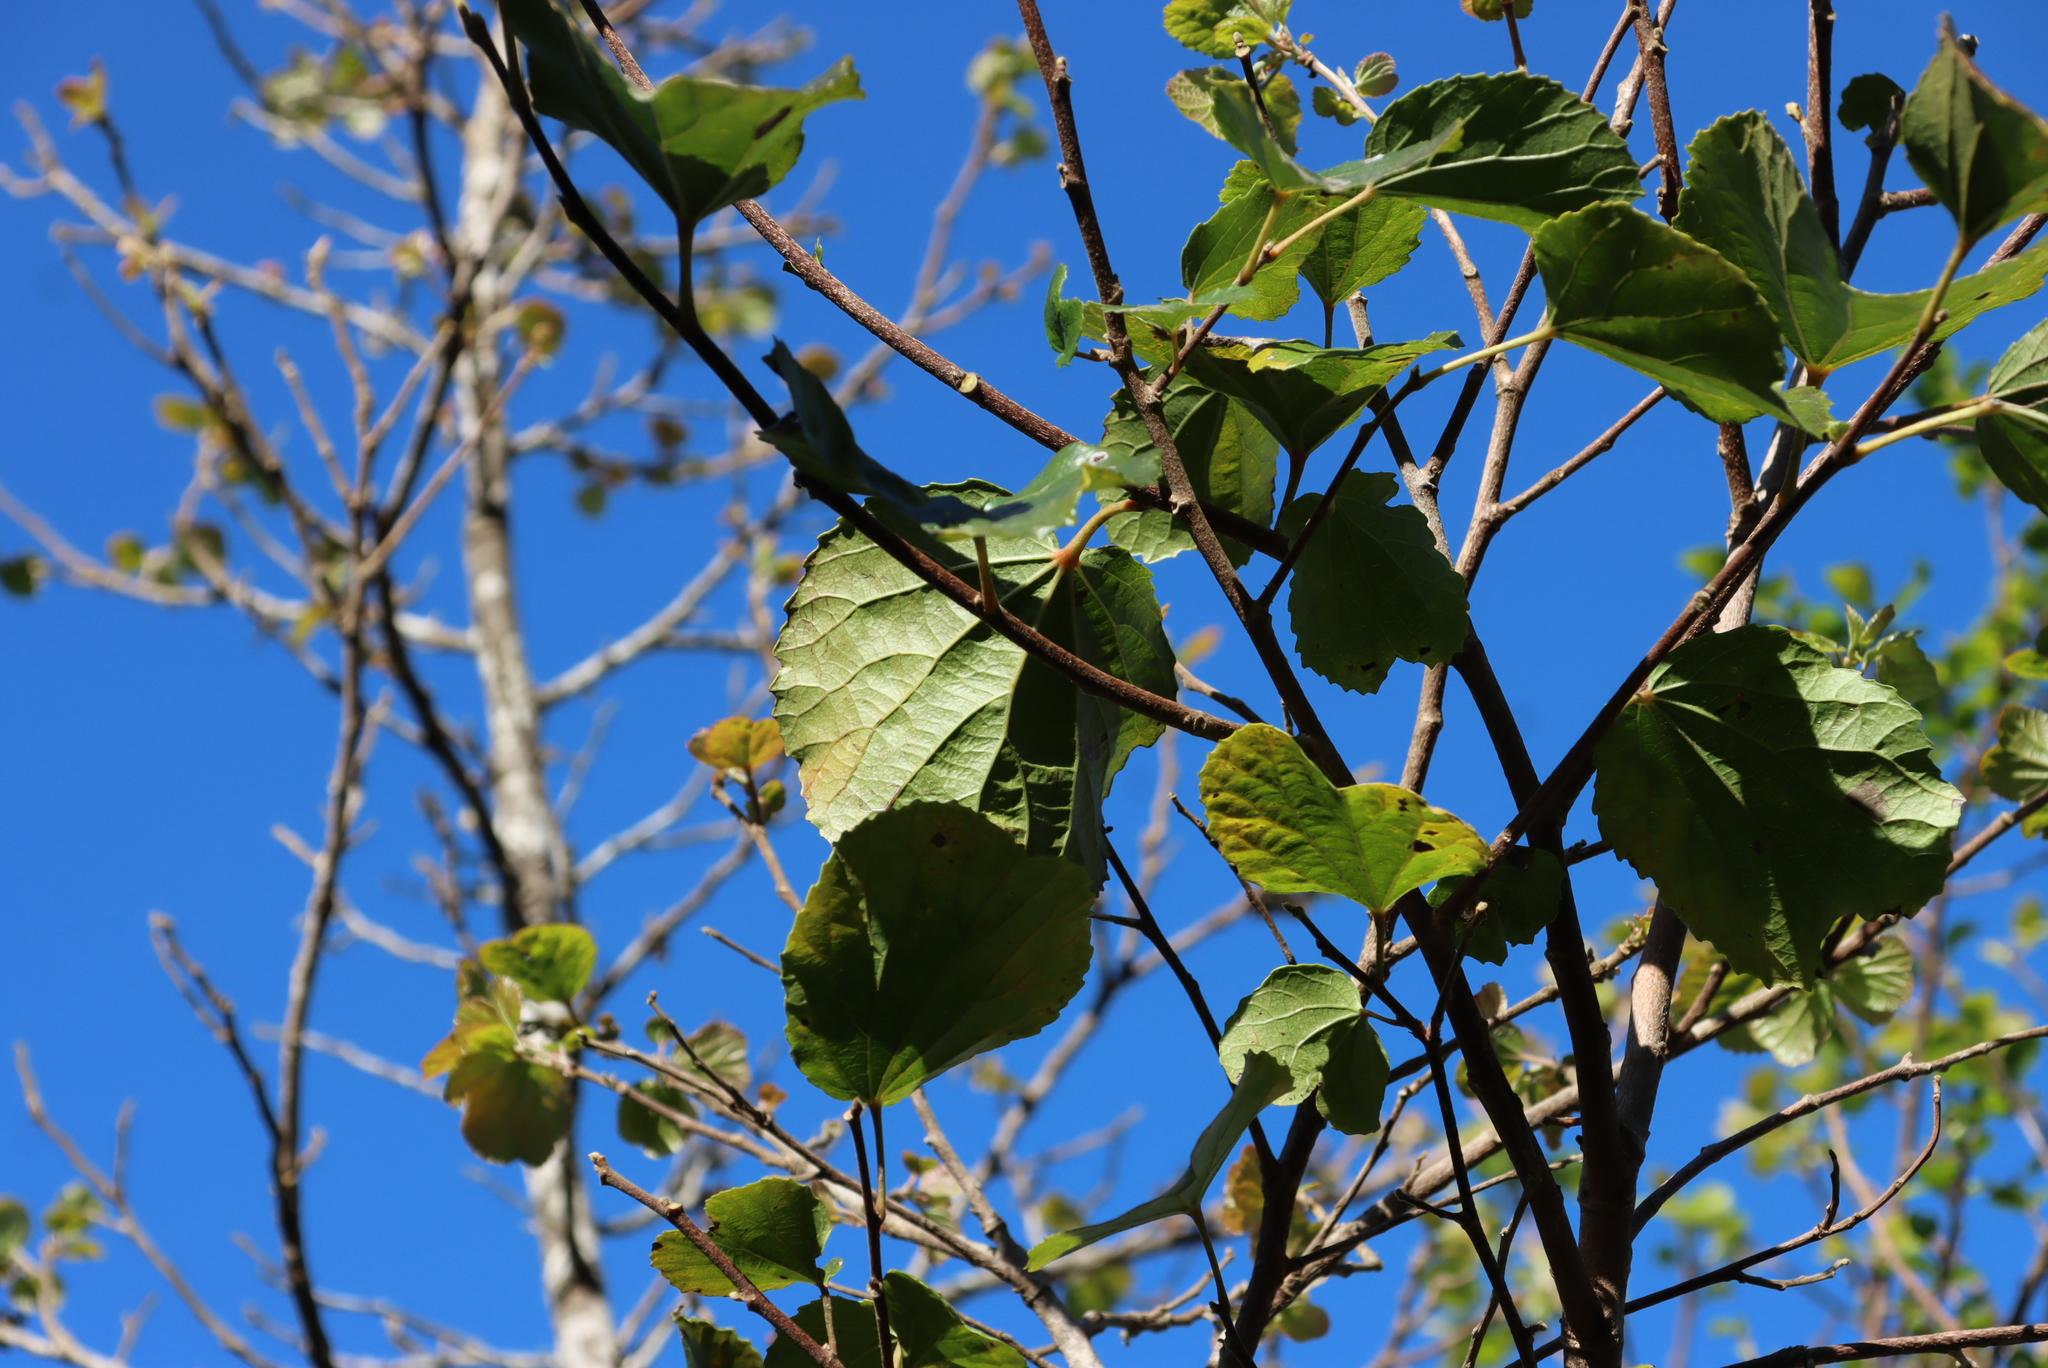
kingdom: Plantae
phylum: Tracheophyta
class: Magnoliopsida
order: Malpighiales
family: Salicaceae
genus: Trimeria
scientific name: Trimeria grandifolia
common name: Wild mulberry
